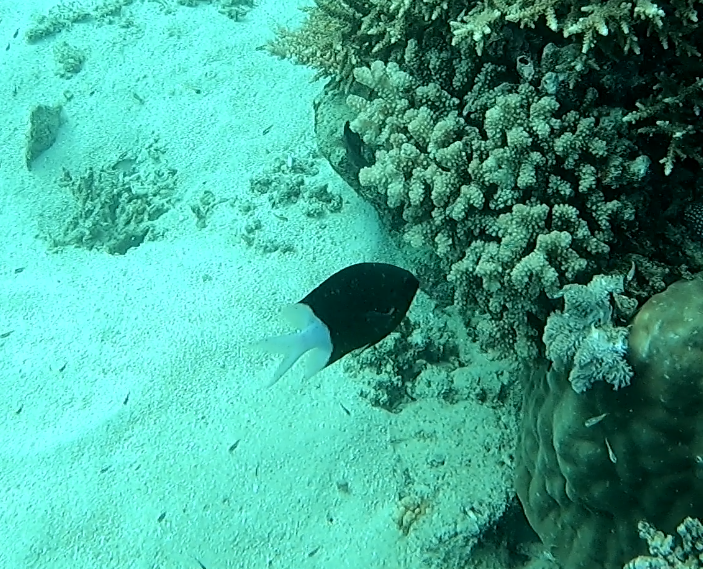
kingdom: Animalia
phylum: Chordata
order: Perciformes
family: Pomacentridae
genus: Acanthochromis
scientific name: Acanthochromis polyacanthus
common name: Spiny chromis
